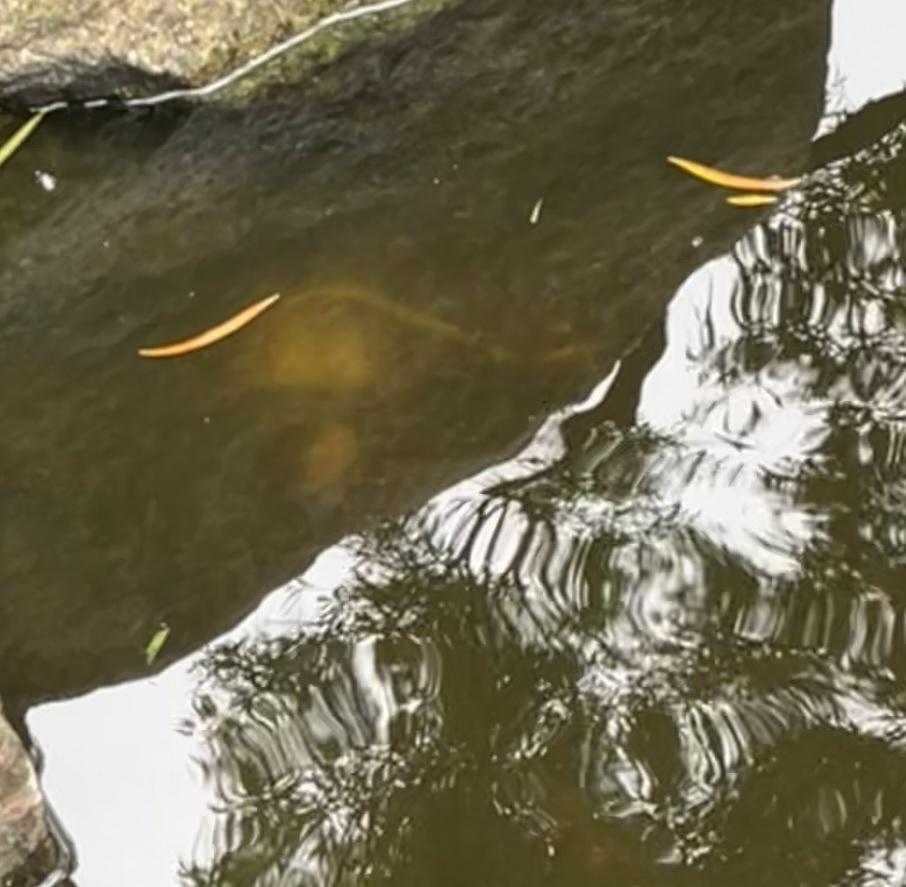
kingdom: Animalia
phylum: Chordata
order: Siluriformes
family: Pimelodidae
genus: Phractocephalus
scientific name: Phractocephalus hemioliopterus
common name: Redtail catfish
